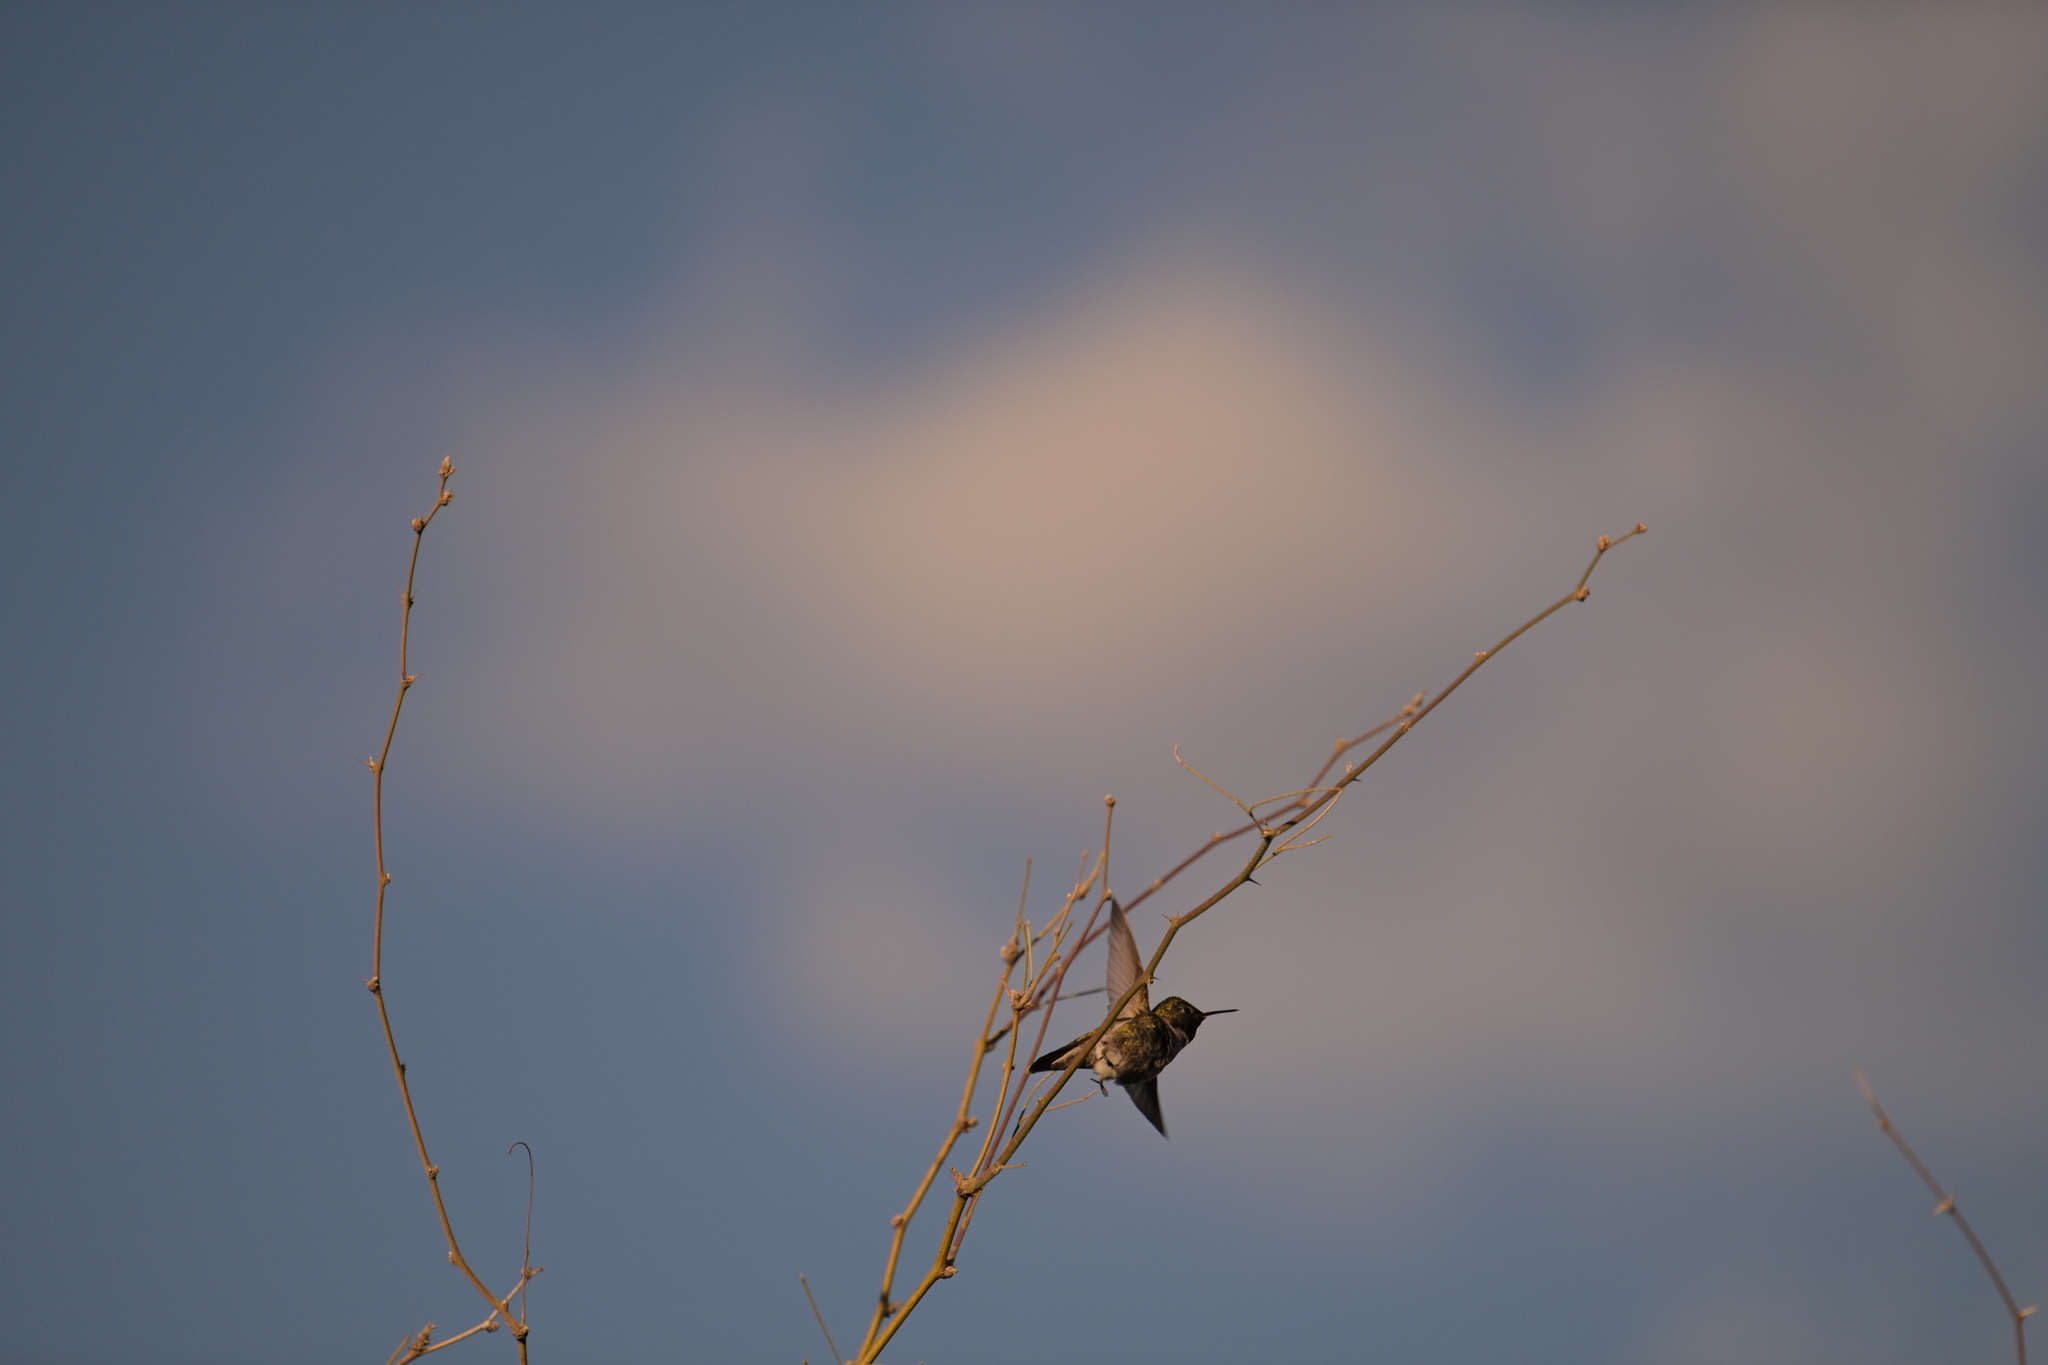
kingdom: Animalia
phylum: Chordata
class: Aves
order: Apodiformes
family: Trochilidae
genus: Calypte
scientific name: Calypte anna
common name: Anna's hummingbird
